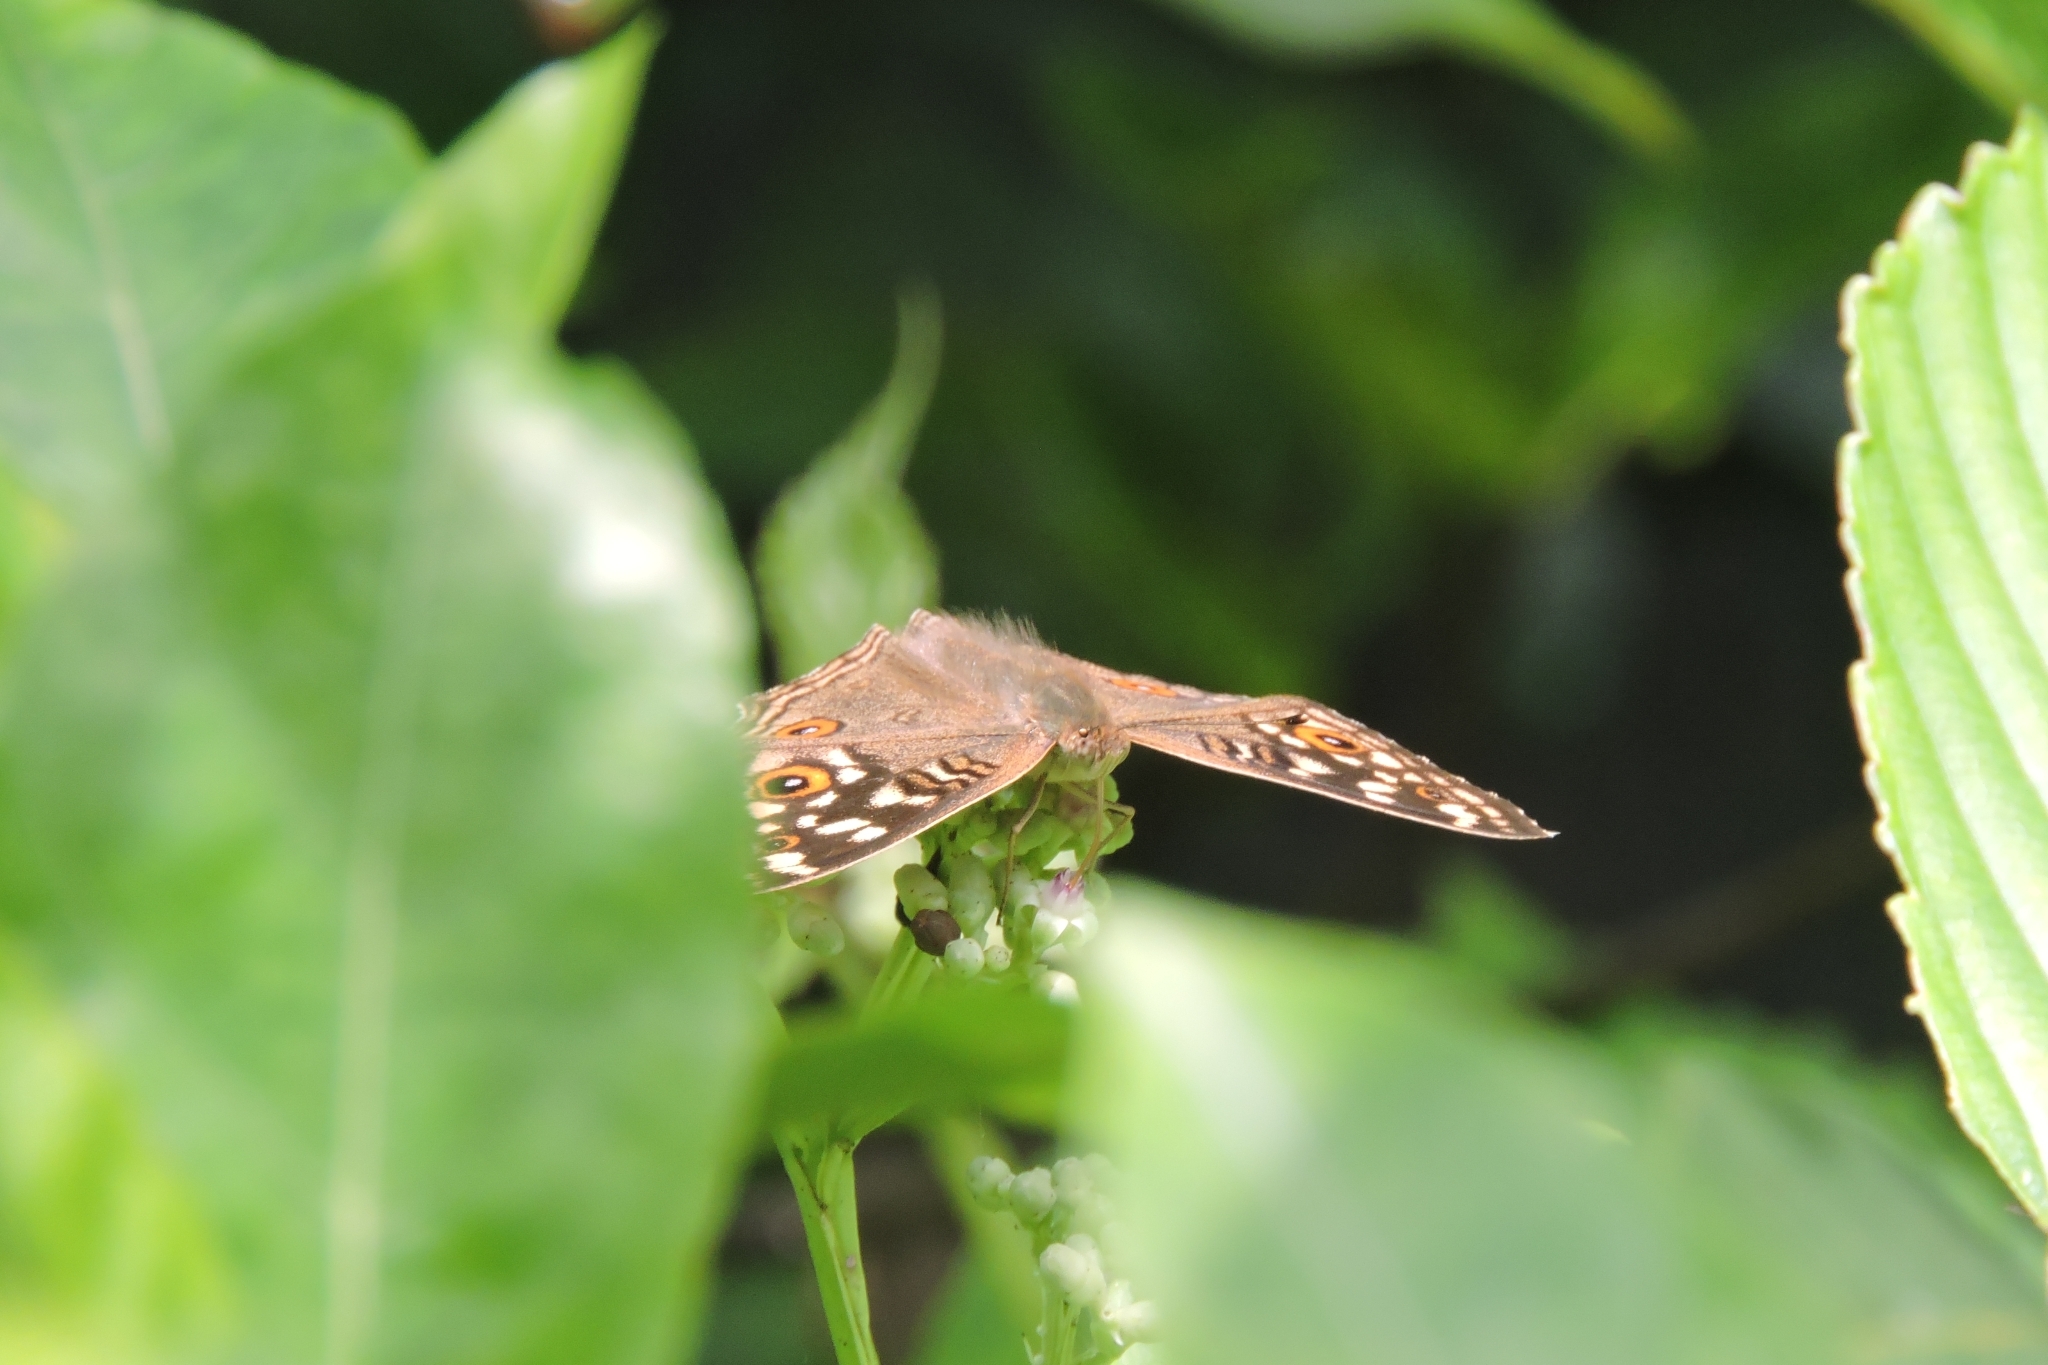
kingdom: Animalia
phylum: Arthropoda
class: Insecta
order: Lepidoptera
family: Nymphalidae
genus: Junonia
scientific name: Junonia lemonias
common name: Lemon pansy
